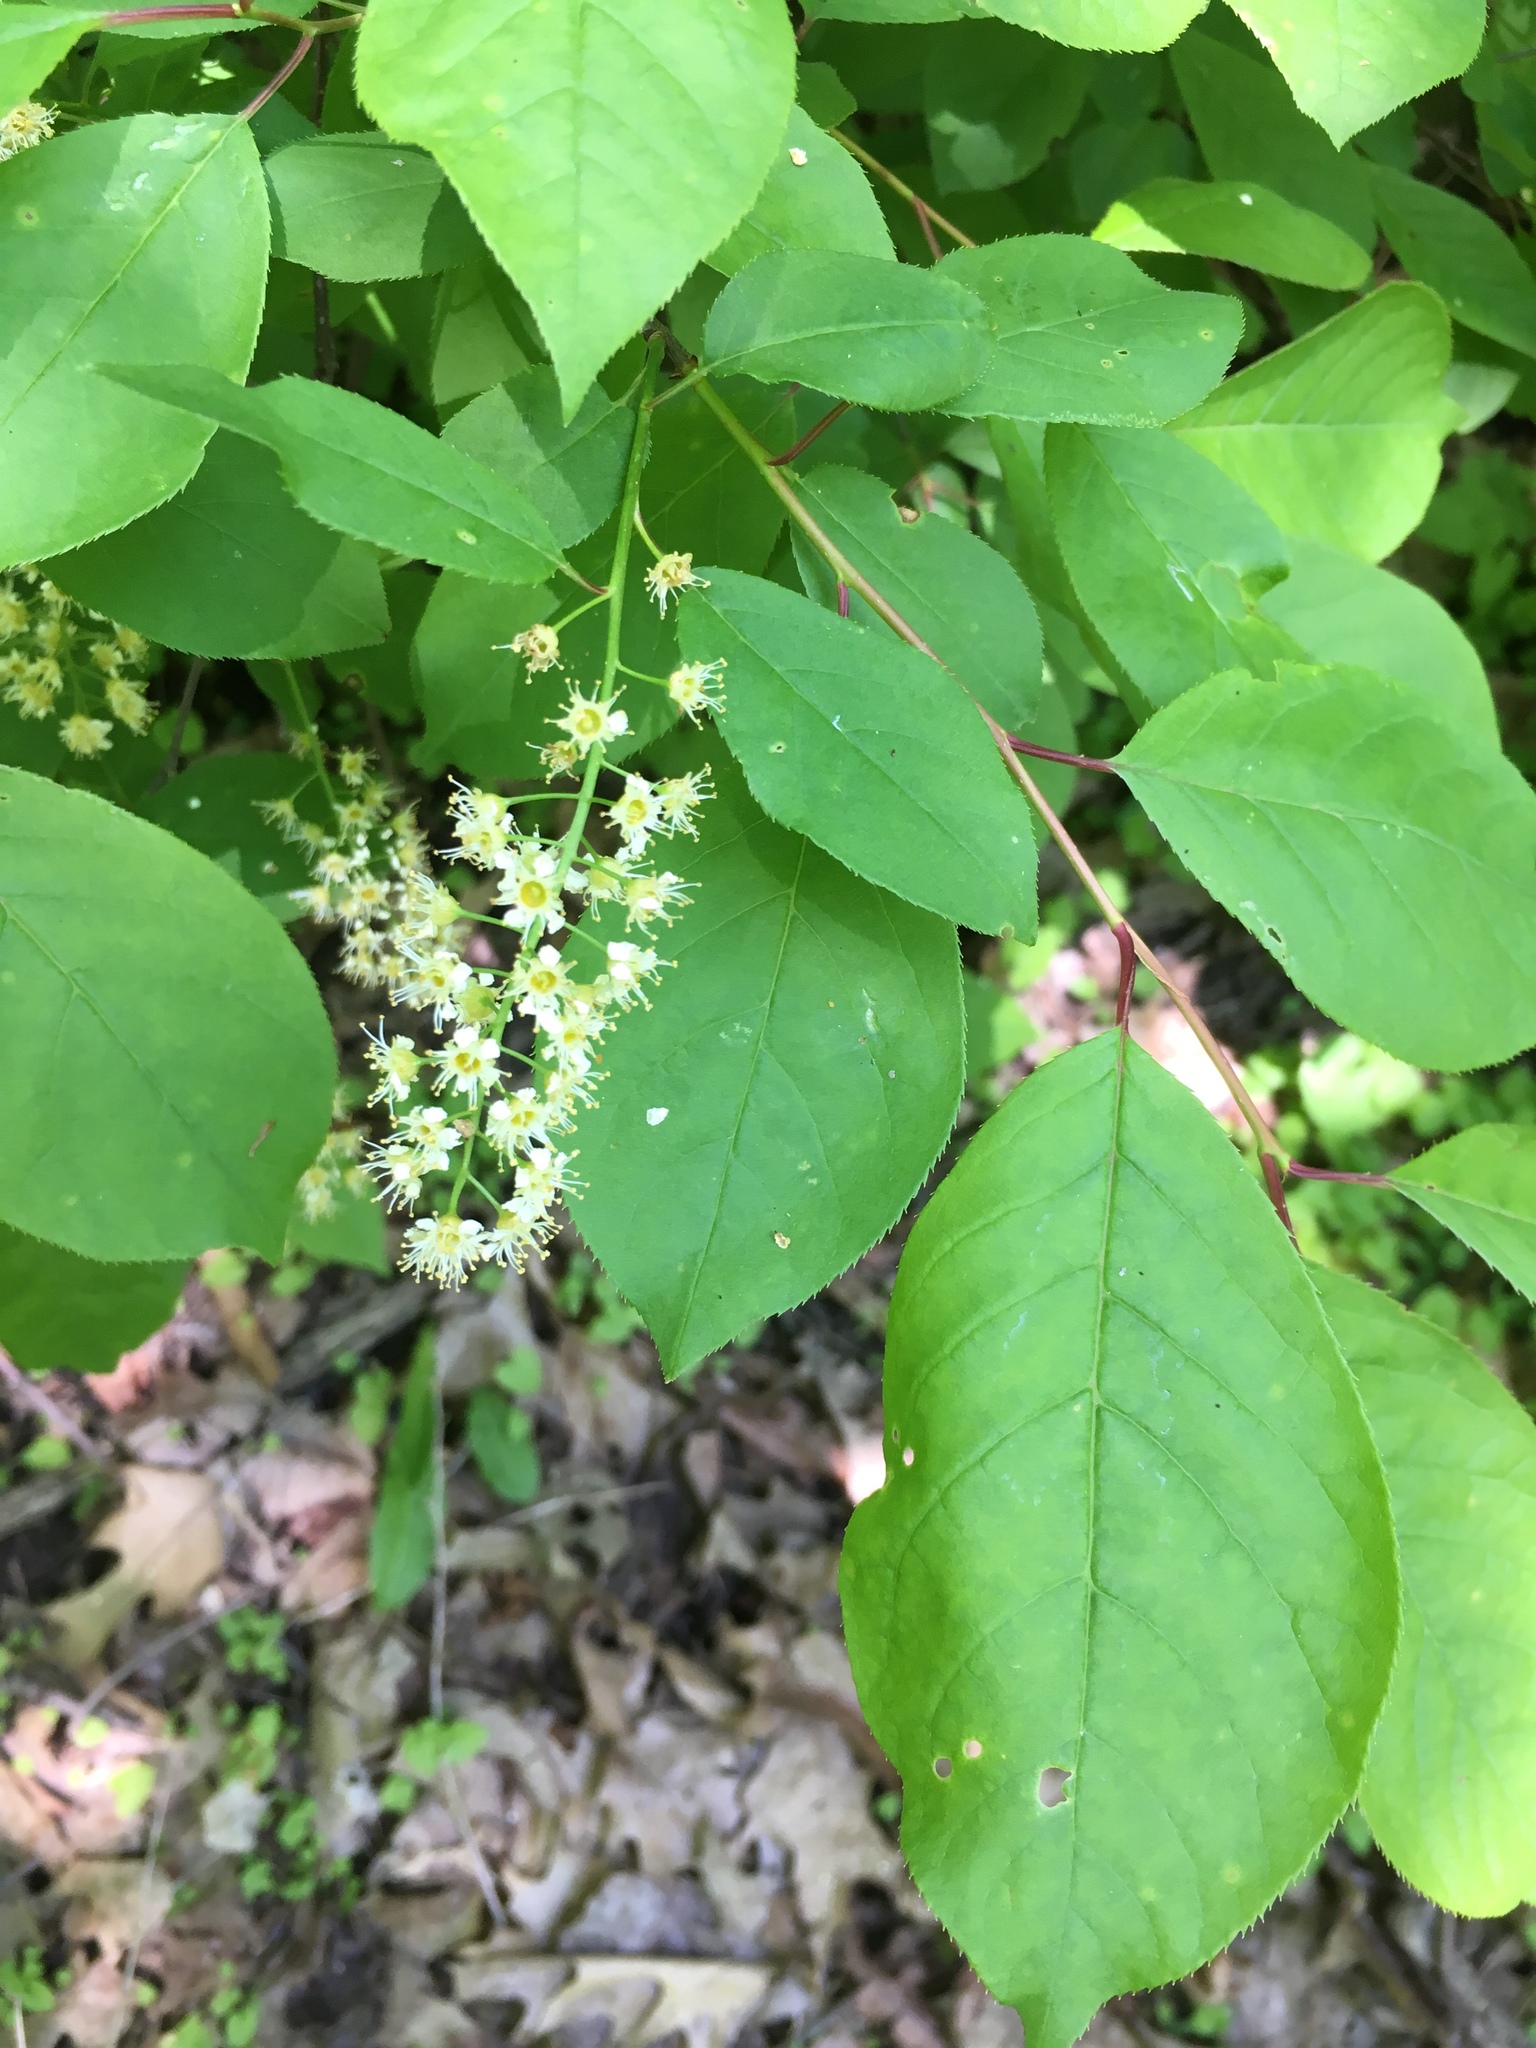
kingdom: Plantae
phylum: Tracheophyta
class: Magnoliopsida
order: Rosales
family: Rosaceae
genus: Prunus
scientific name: Prunus virginiana
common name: Chokecherry
